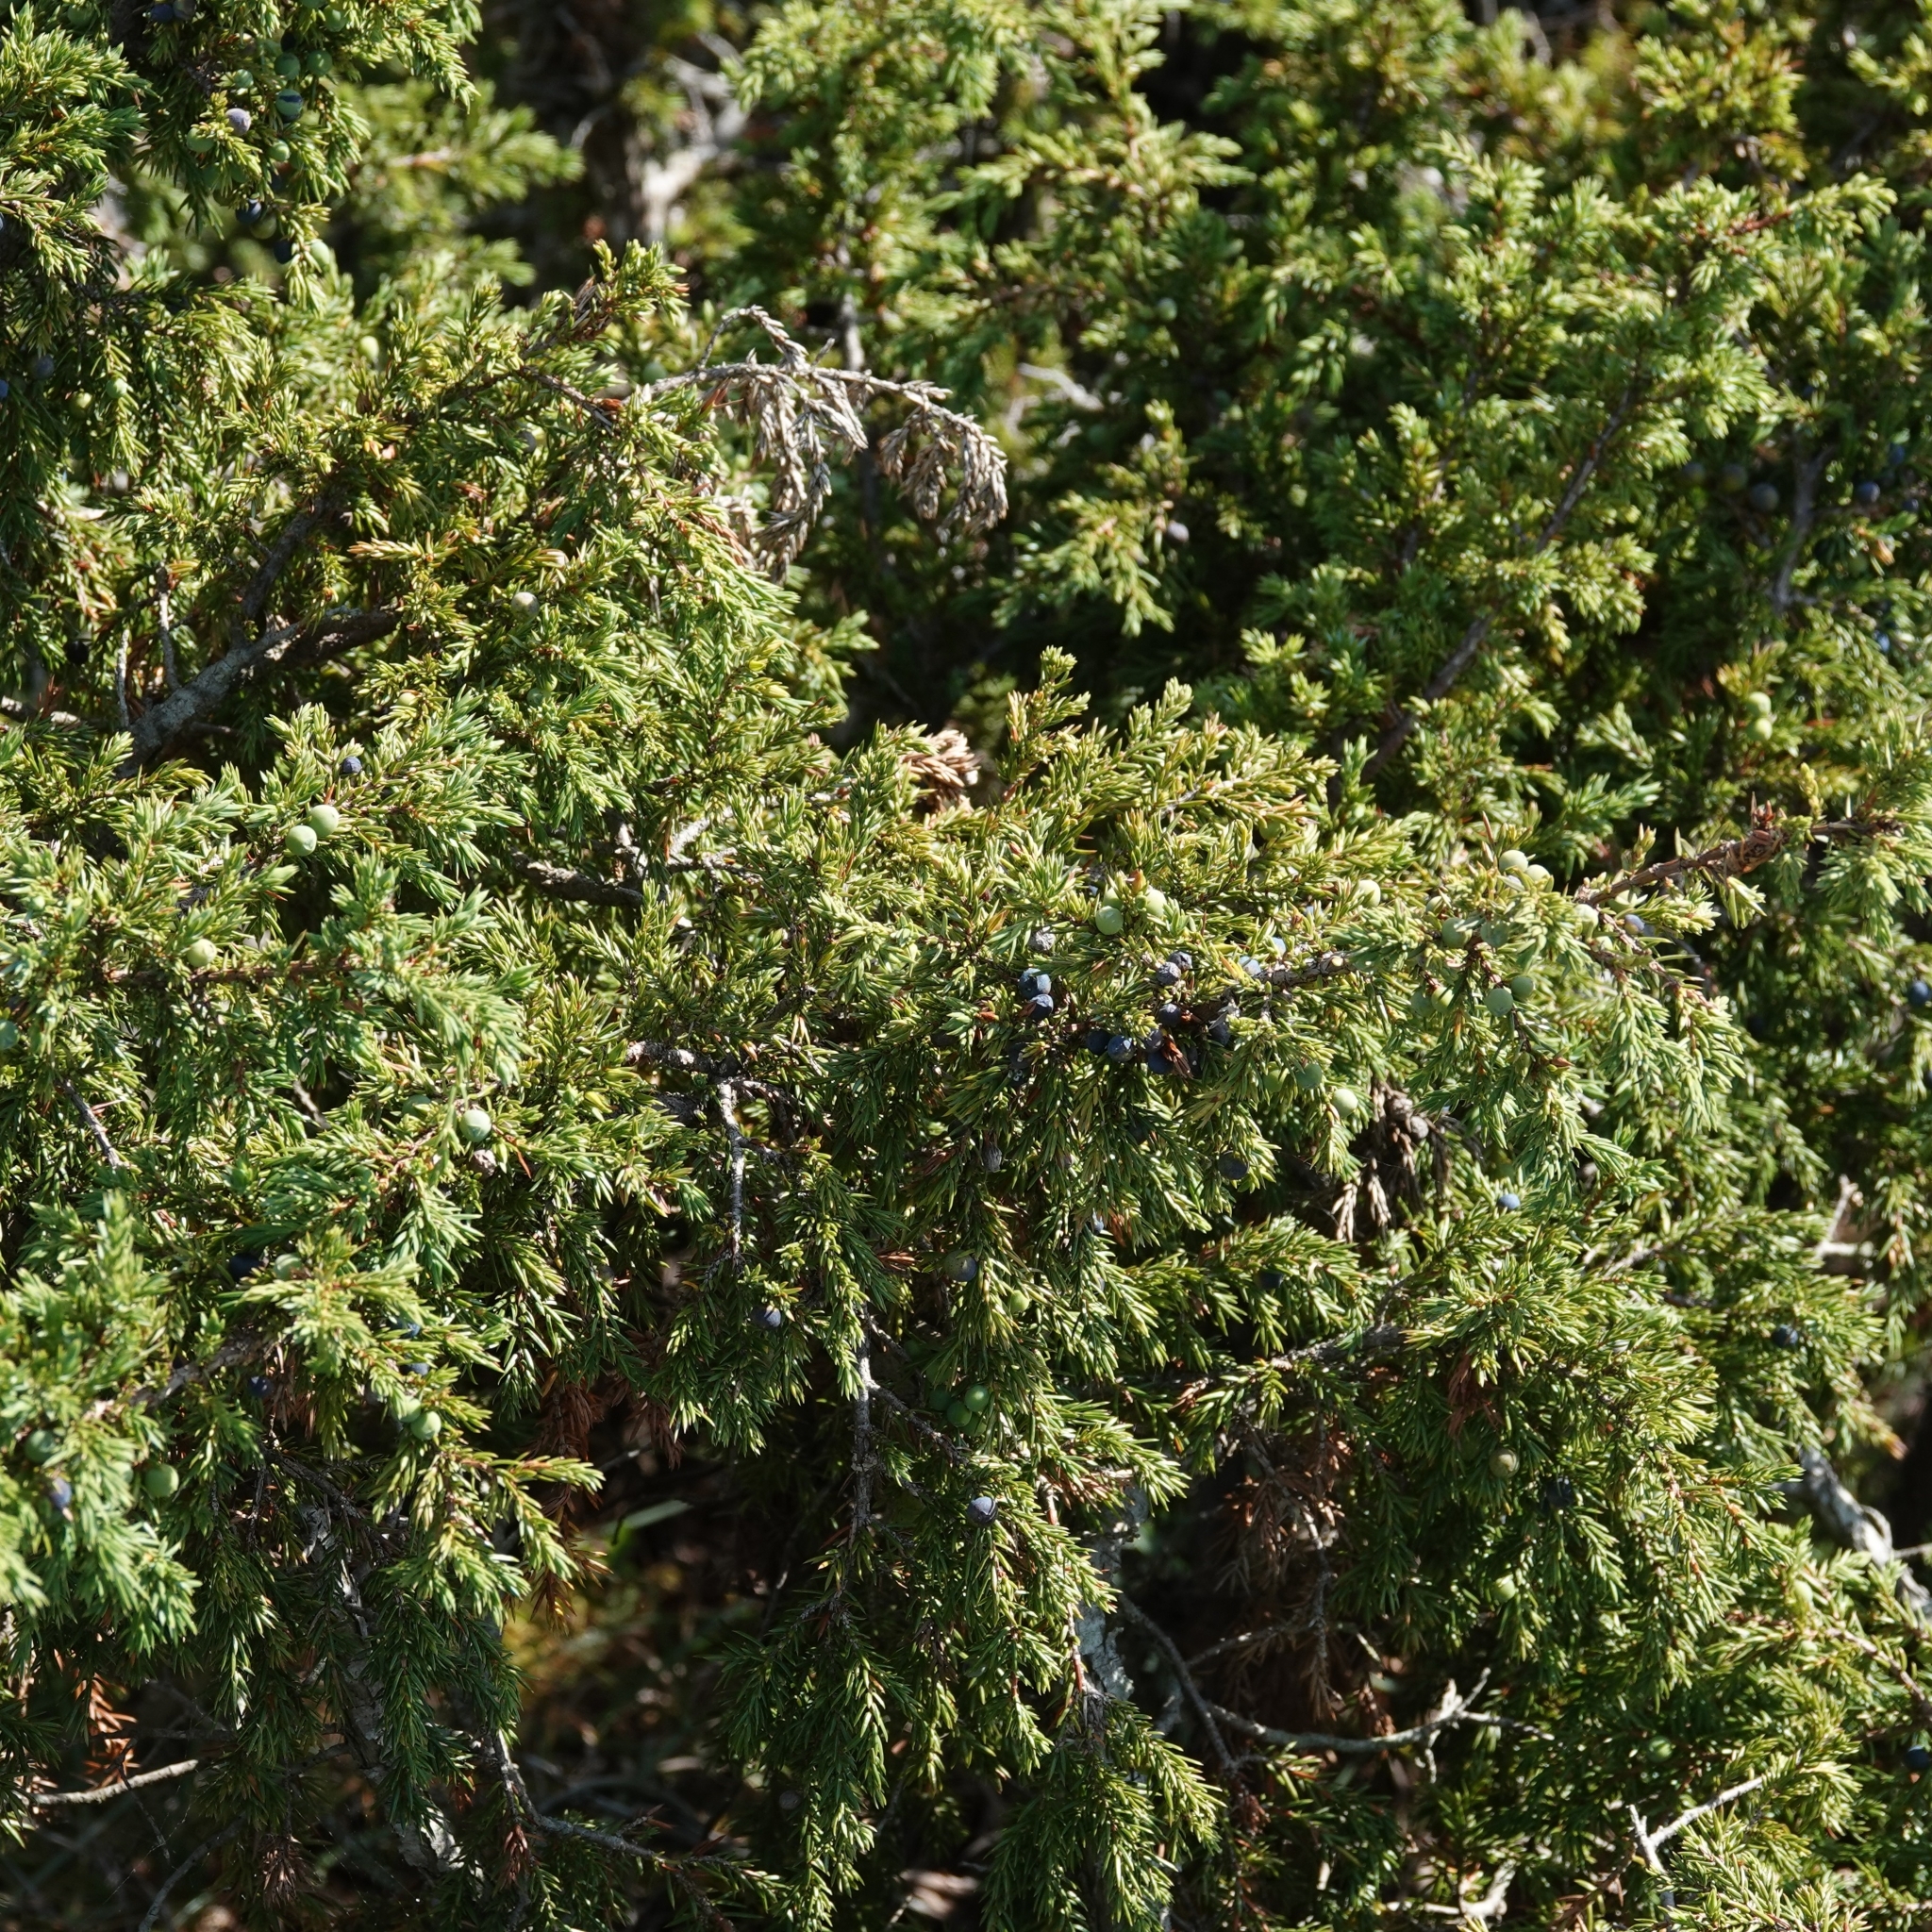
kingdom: Plantae
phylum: Tracheophyta
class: Pinopsida
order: Pinales
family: Cupressaceae
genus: Juniperus
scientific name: Juniperus communis
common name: Common juniper
